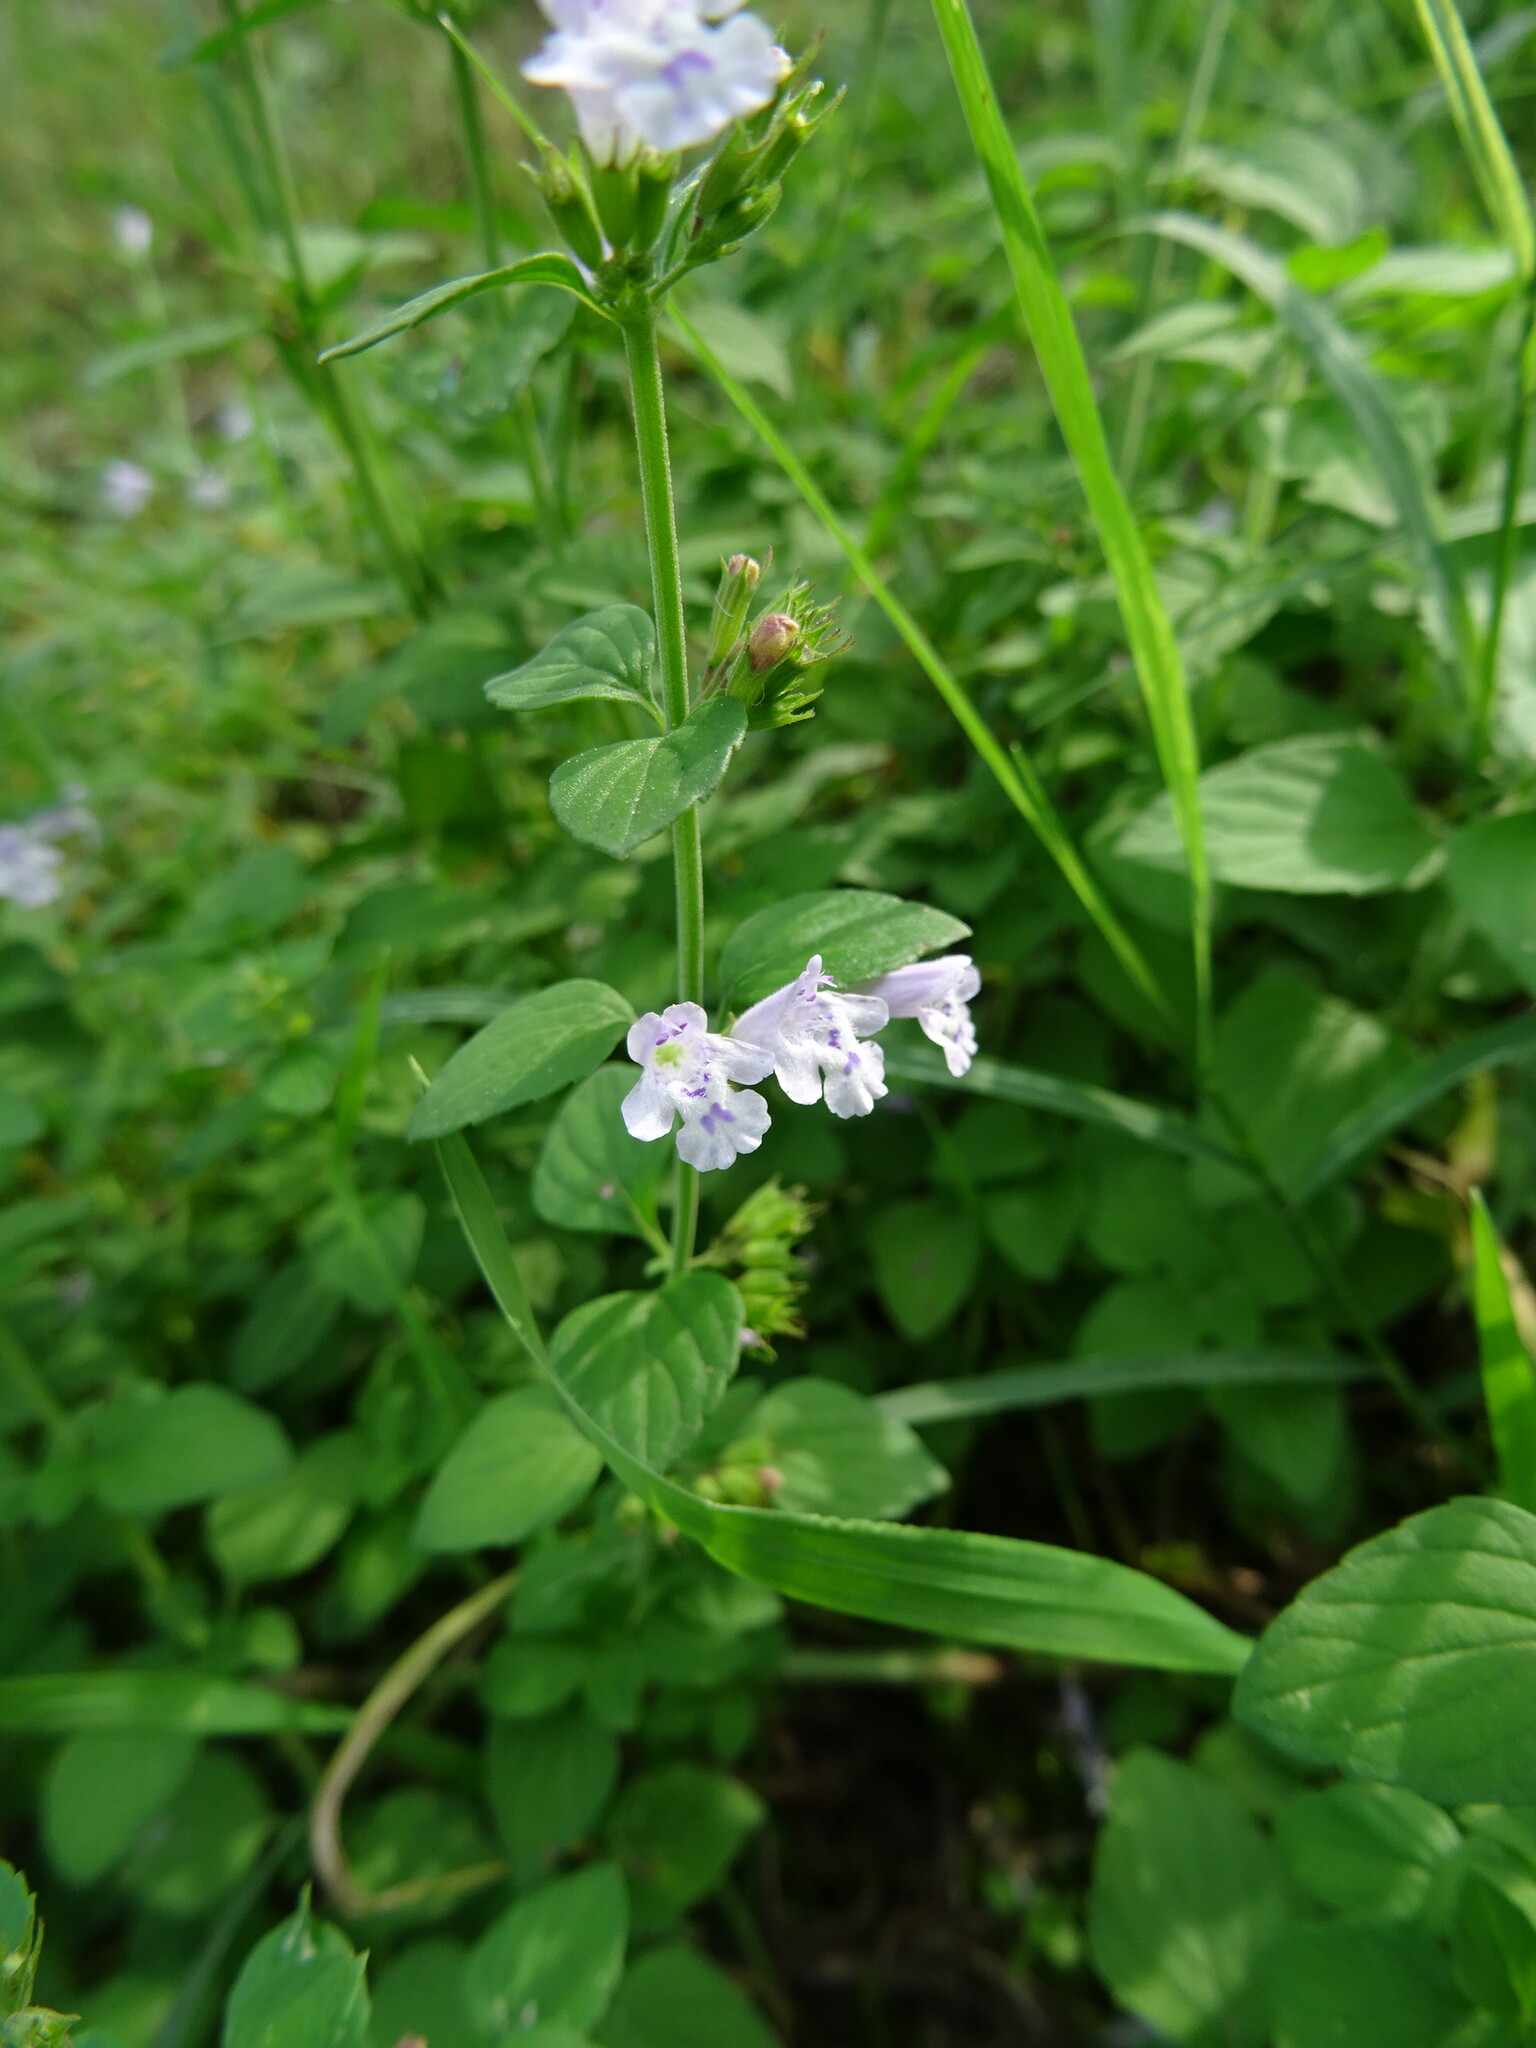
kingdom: Plantae
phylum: Tracheophyta
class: Magnoliopsida
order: Lamiales
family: Lamiaceae
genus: Clinopodium
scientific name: Clinopodium nepeta
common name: Lesser calamint
